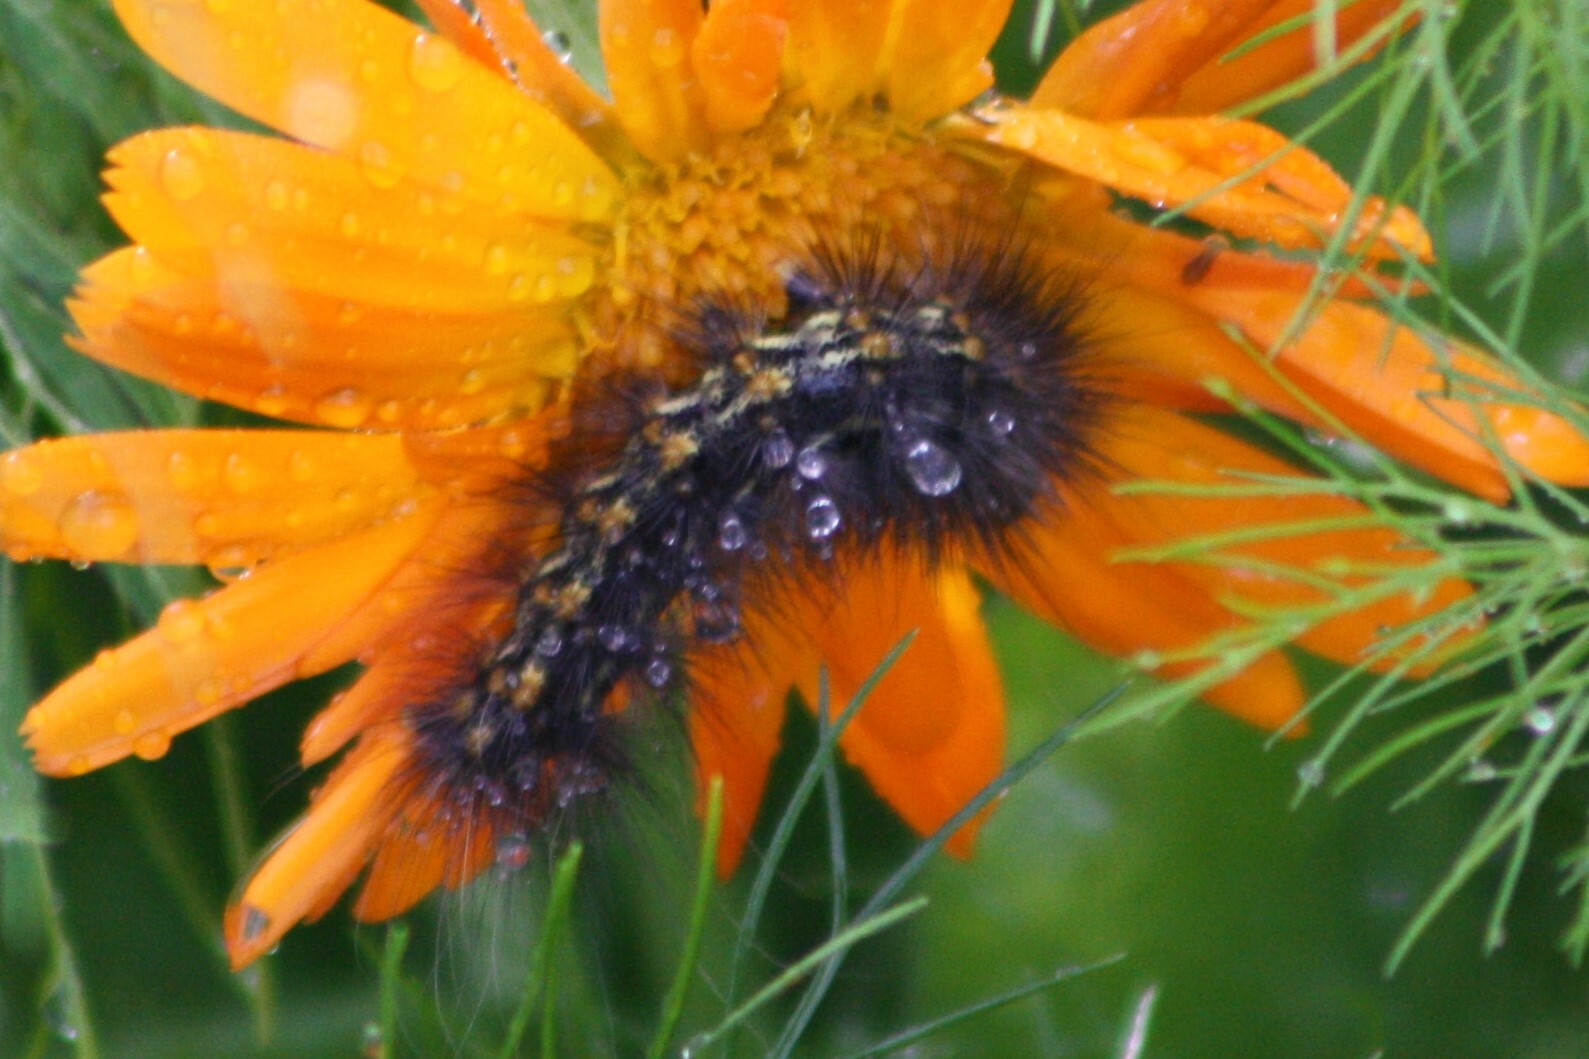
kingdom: Animalia
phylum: Arthropoda
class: Insecta
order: Lepidoptera
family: Erebidae
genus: Estigmene
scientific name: Estigmene acrea
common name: Salt marsh moth
